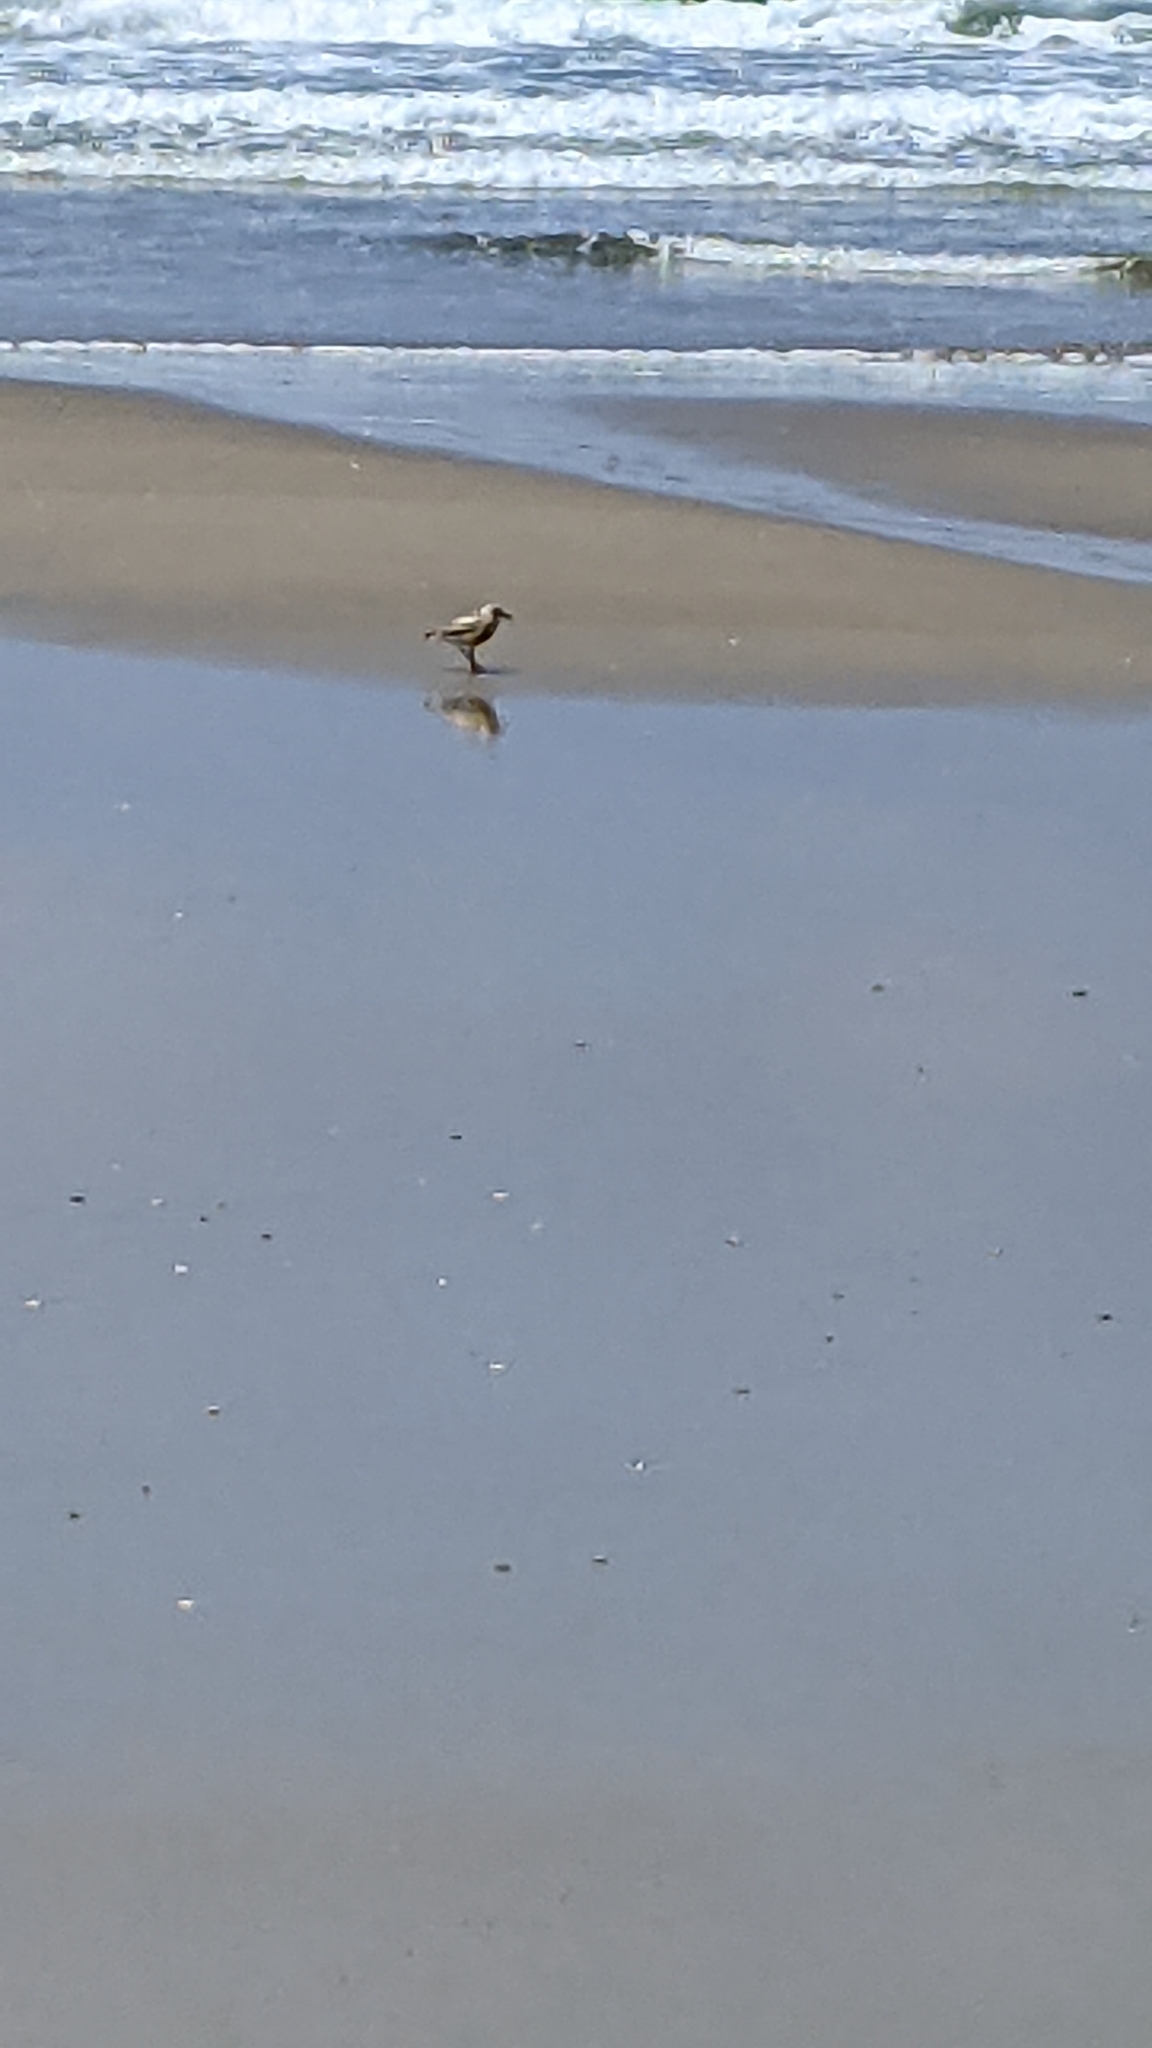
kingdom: Animalia
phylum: Chordata
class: Aves
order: Charadriiformes
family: Charadriidae
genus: Anarhynchus
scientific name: Anarhynchus
